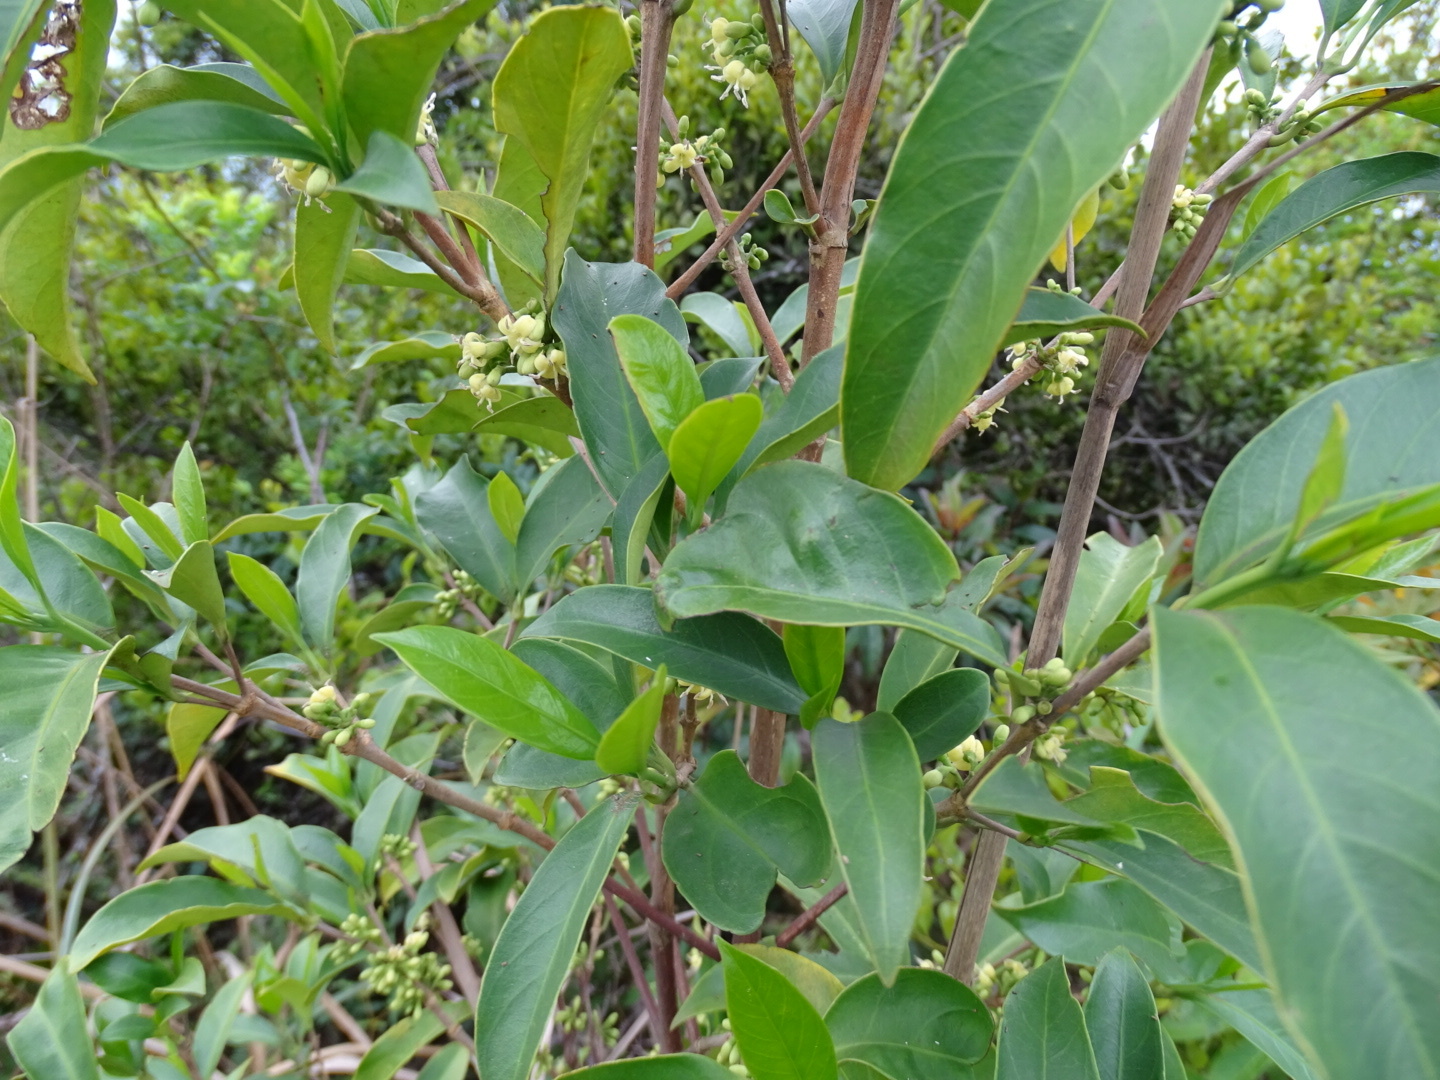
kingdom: Plantae
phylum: Tracheophyta
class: Magnoliopsida
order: Gentianales
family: Rubiaceae
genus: Diplospora
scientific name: Diplospora dubia
